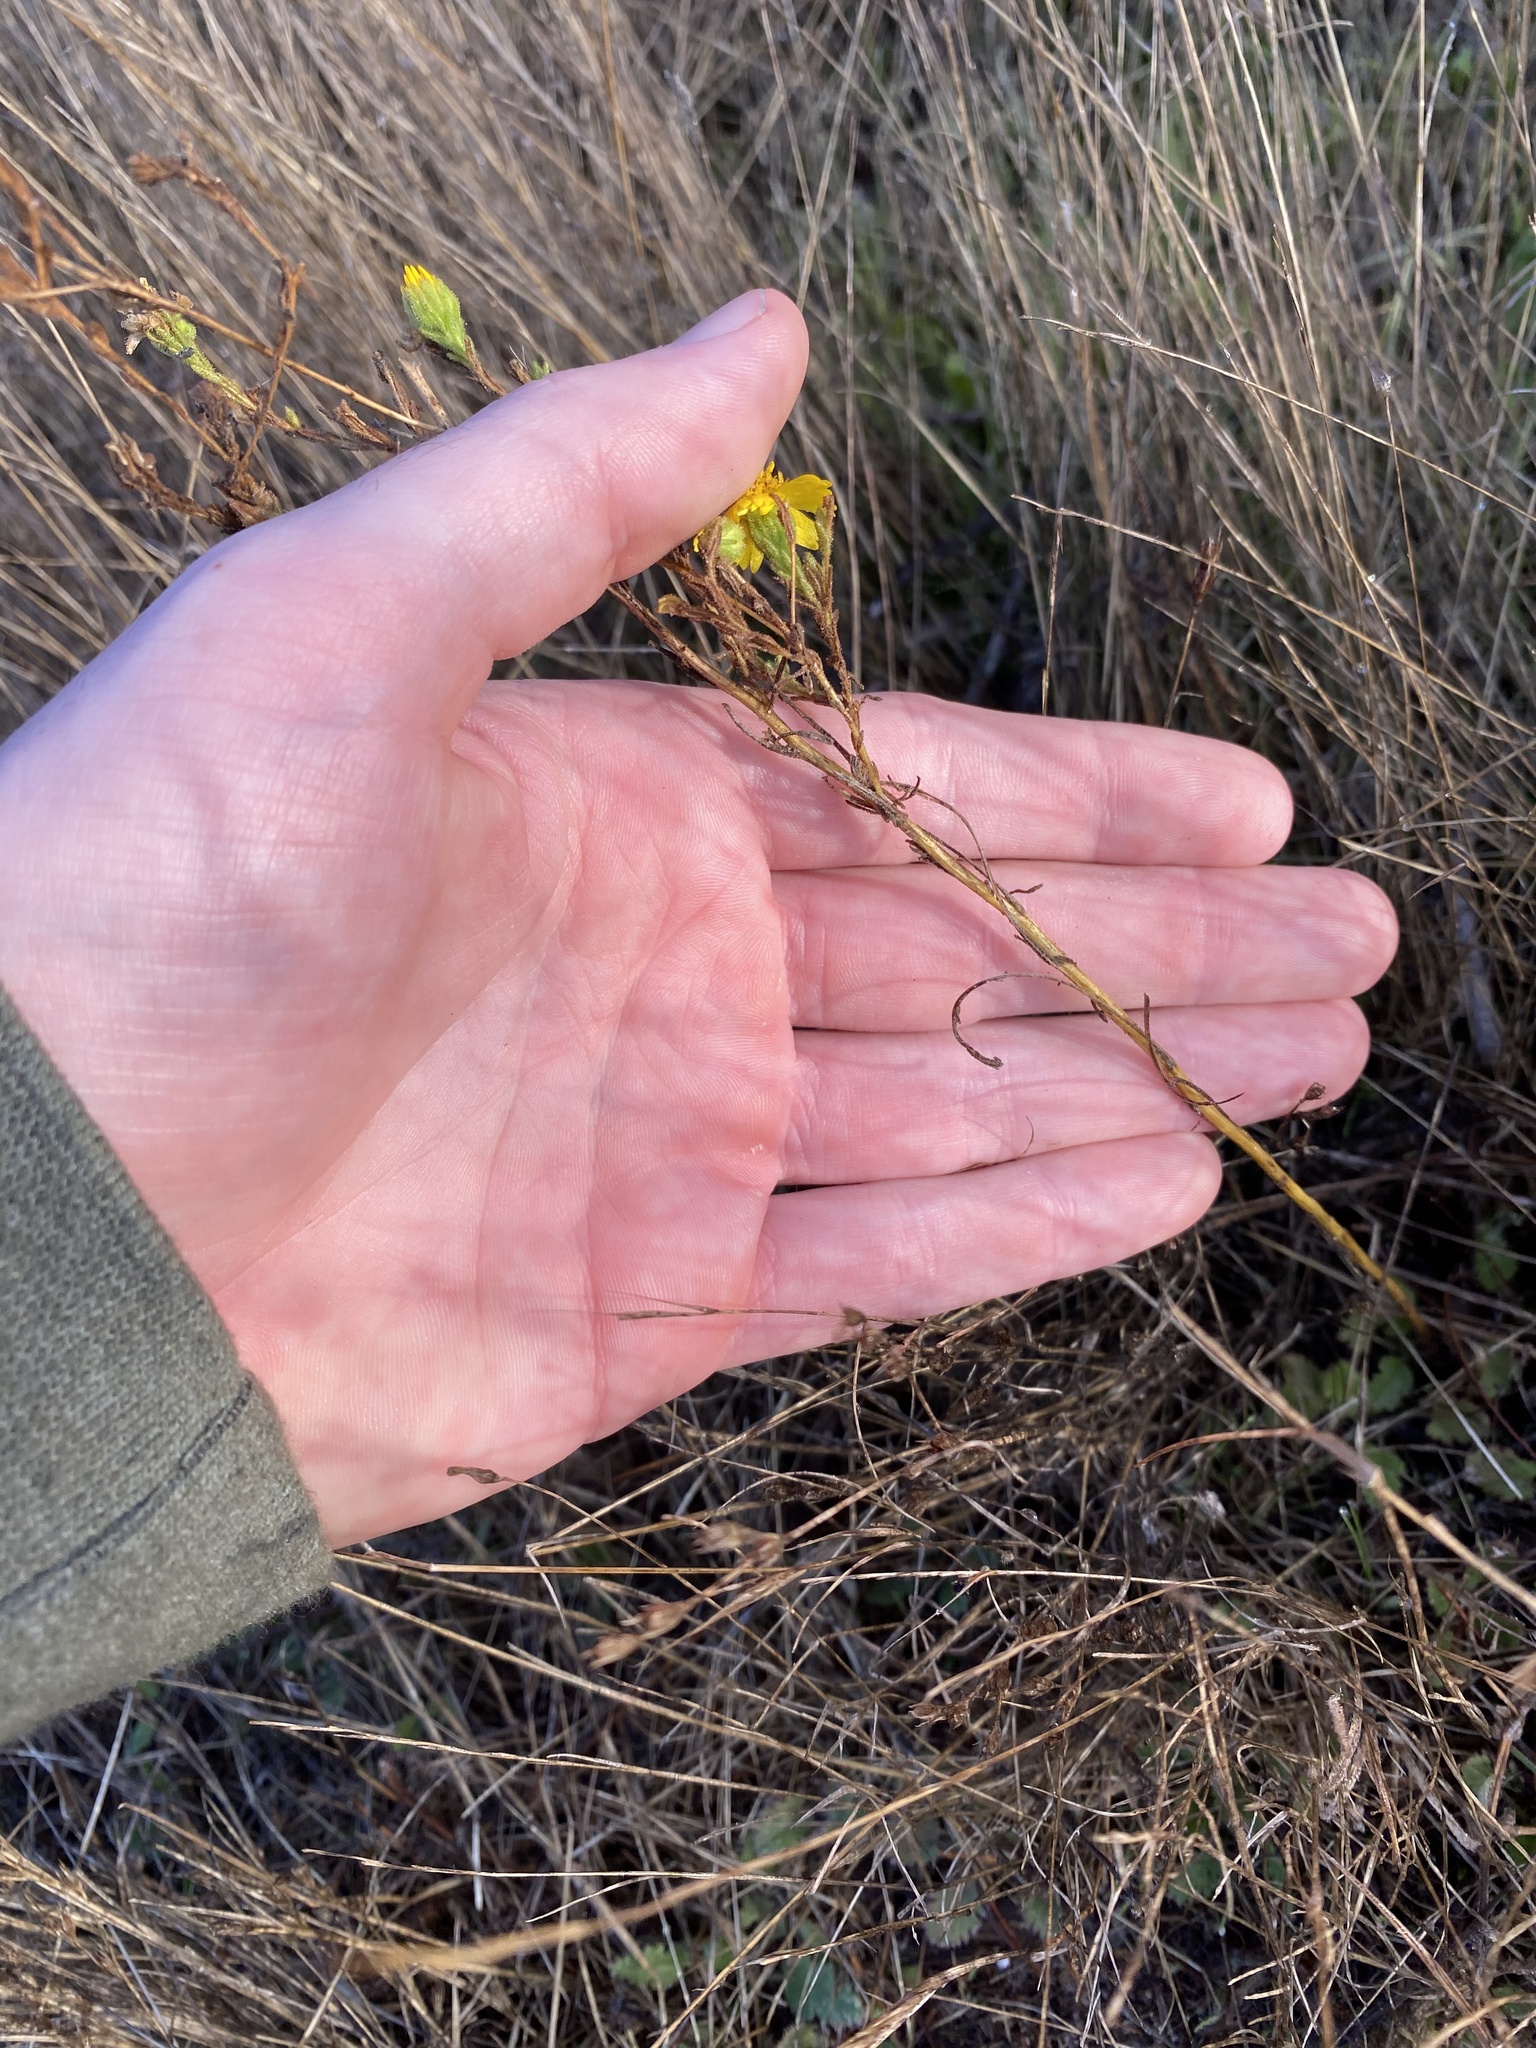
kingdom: Plantae
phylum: Tracheophyta
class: Magnoliopsida
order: Asterales
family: Asteraceae
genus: Deinandra
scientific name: Deinandra corymbosa
